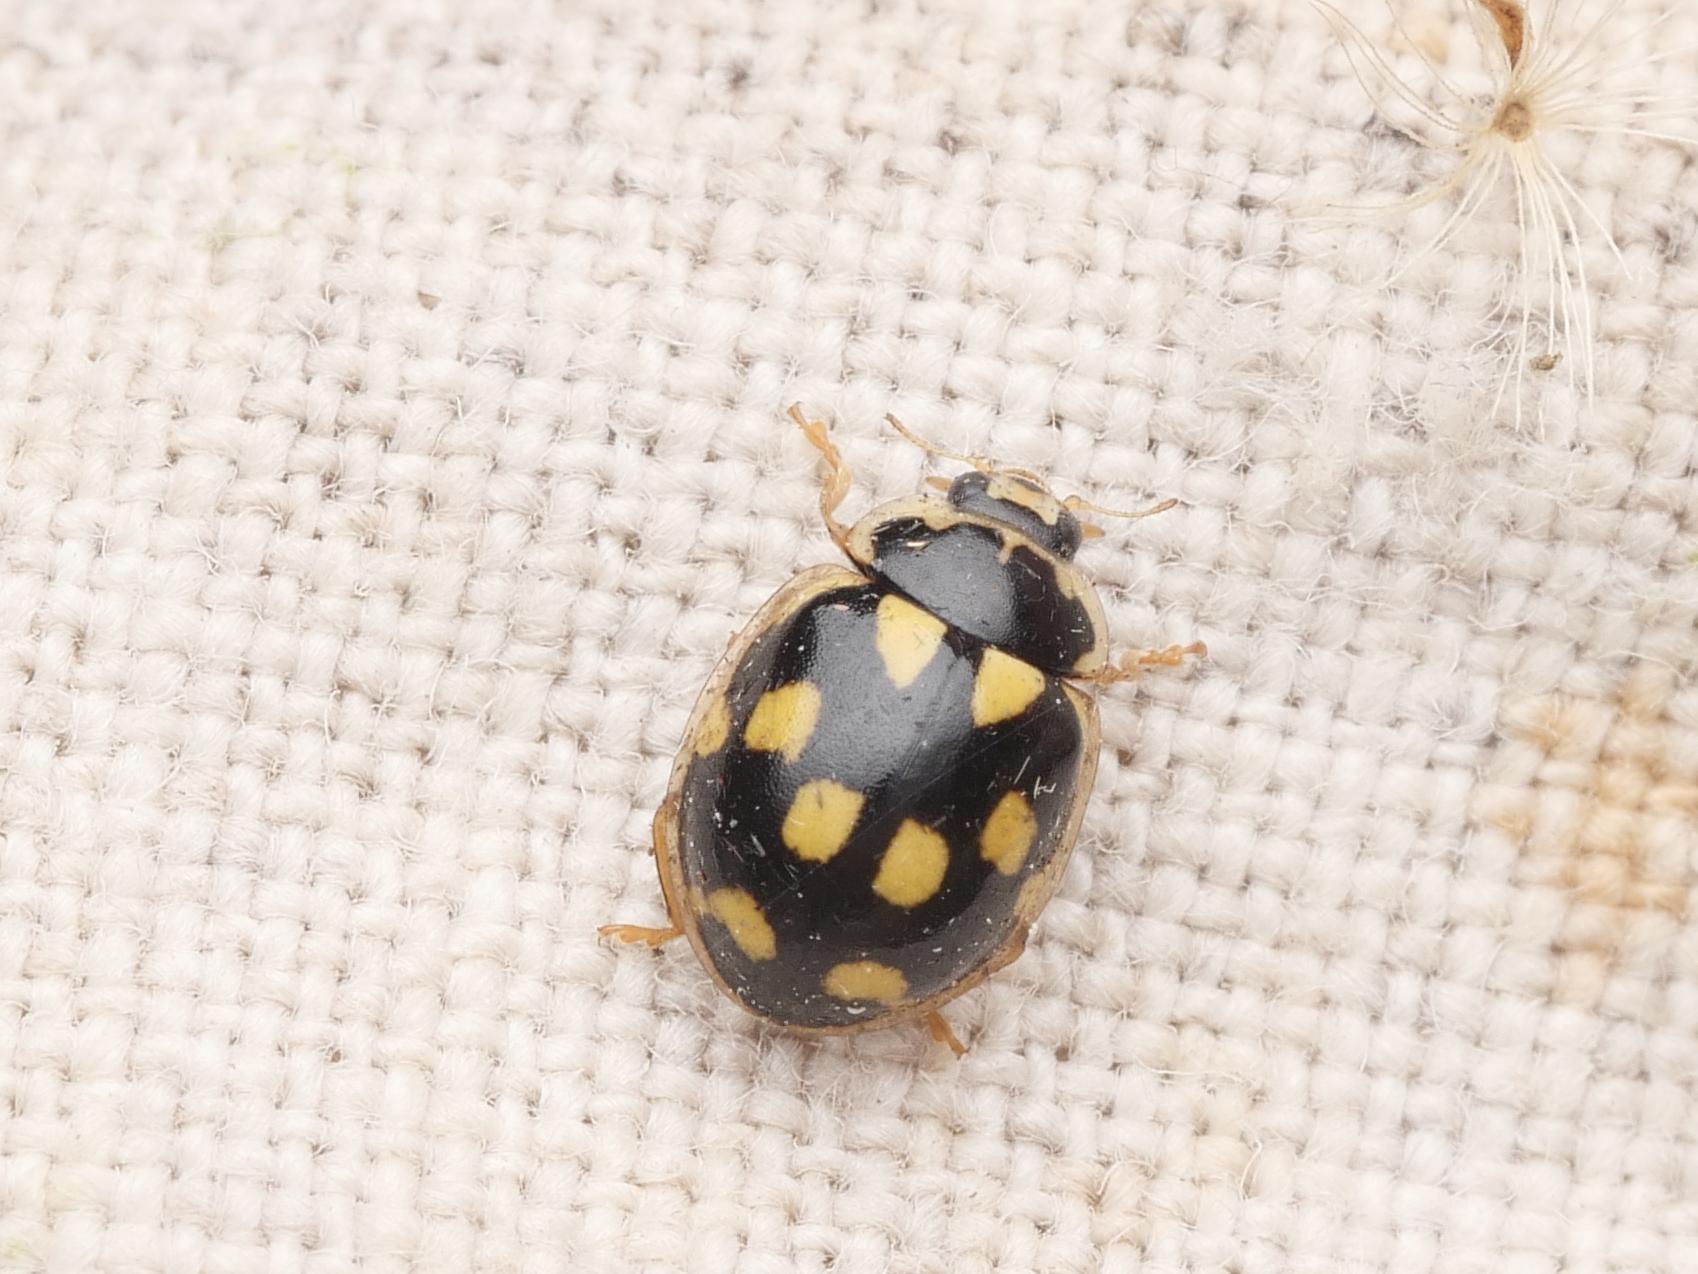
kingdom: Animalia
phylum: Arthropoda
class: Insecta
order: Coleoptera
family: Coccinellidae
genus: Propylaea
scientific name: Propylaea quatuordecimpunctata
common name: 14-spotted ladybird beetle
